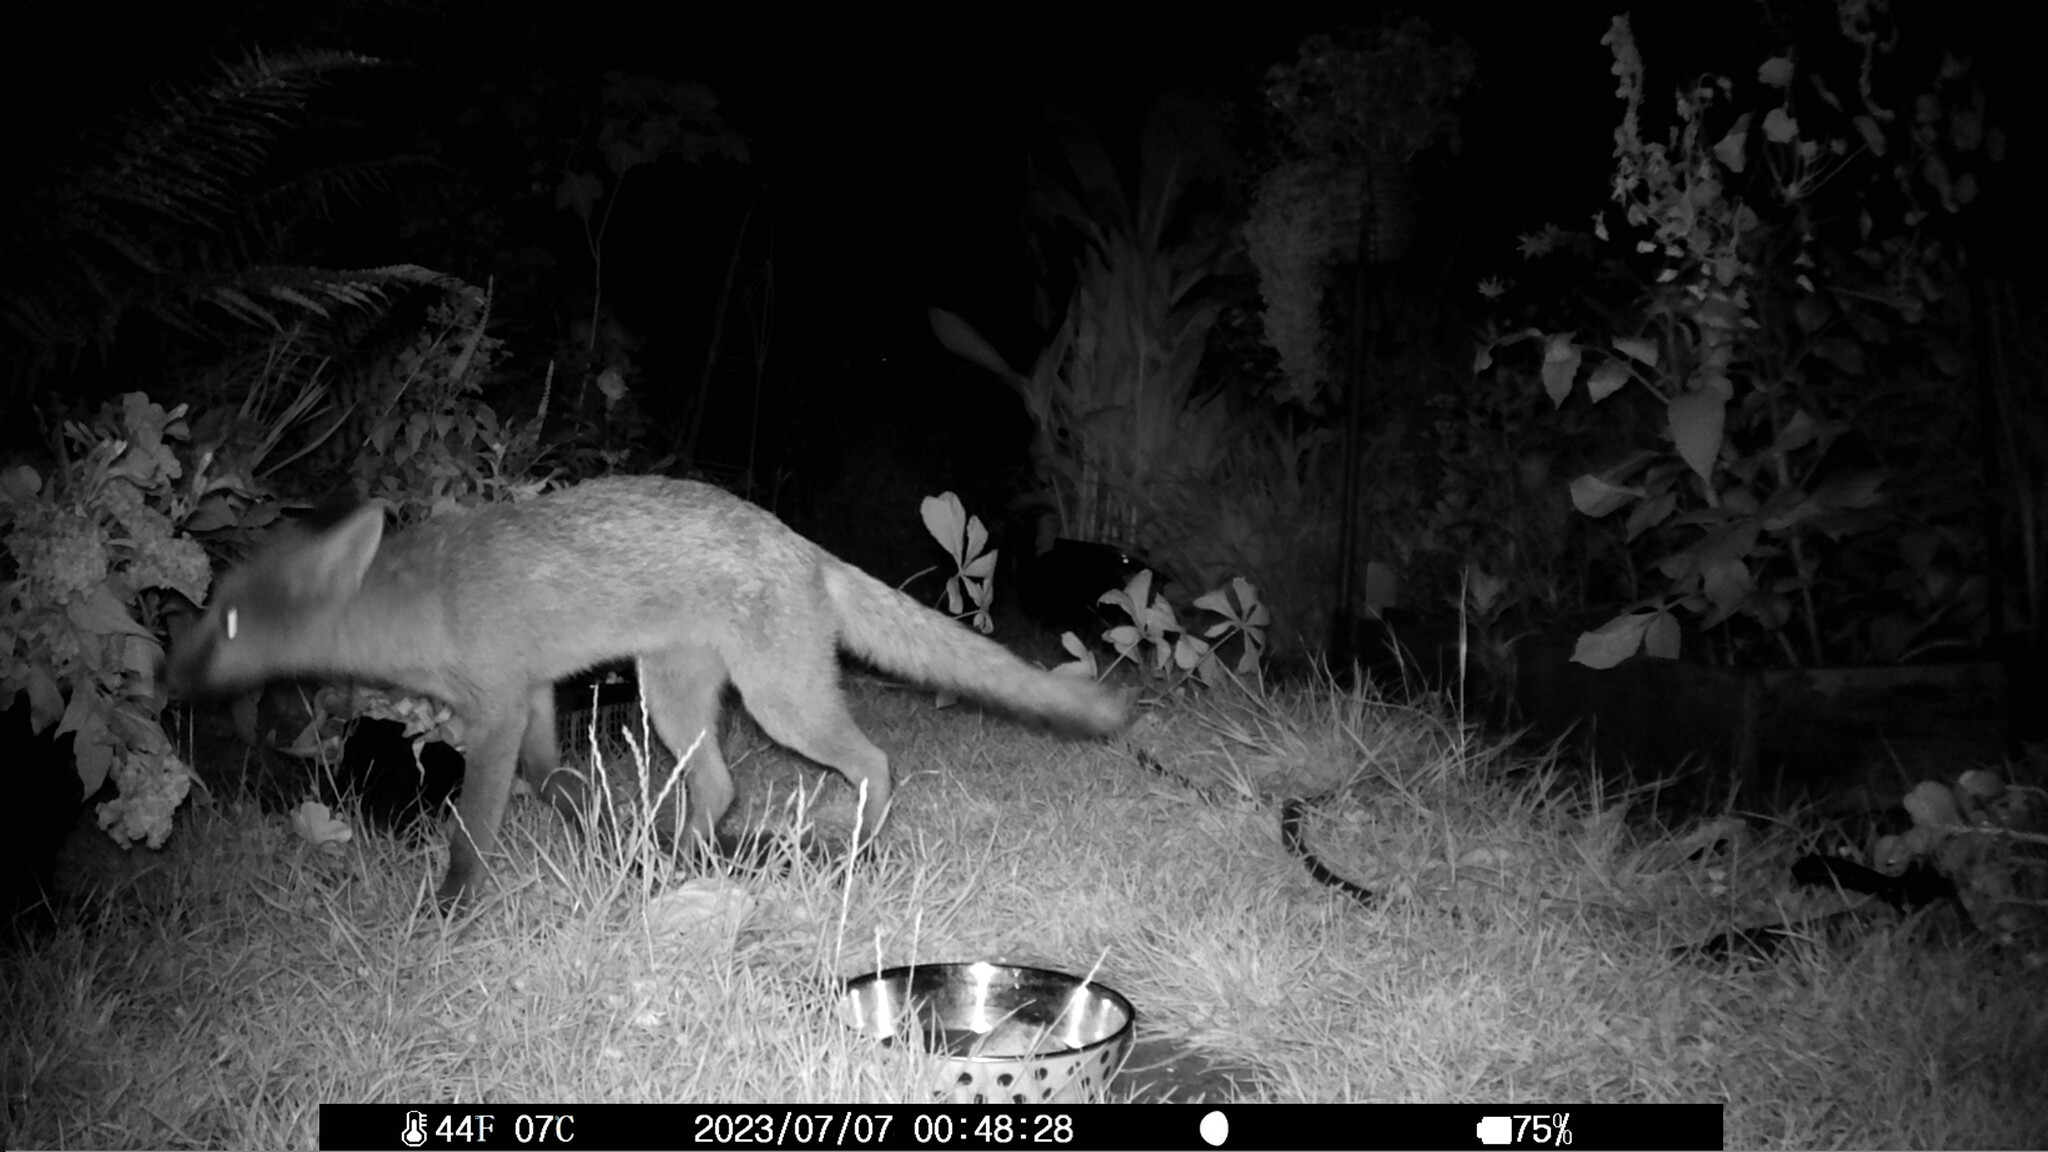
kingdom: Animalia
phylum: Chordata
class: Mammalia
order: Carnivora
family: Canidae
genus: Vulpes
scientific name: Vulpes vulpes
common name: Red fox
